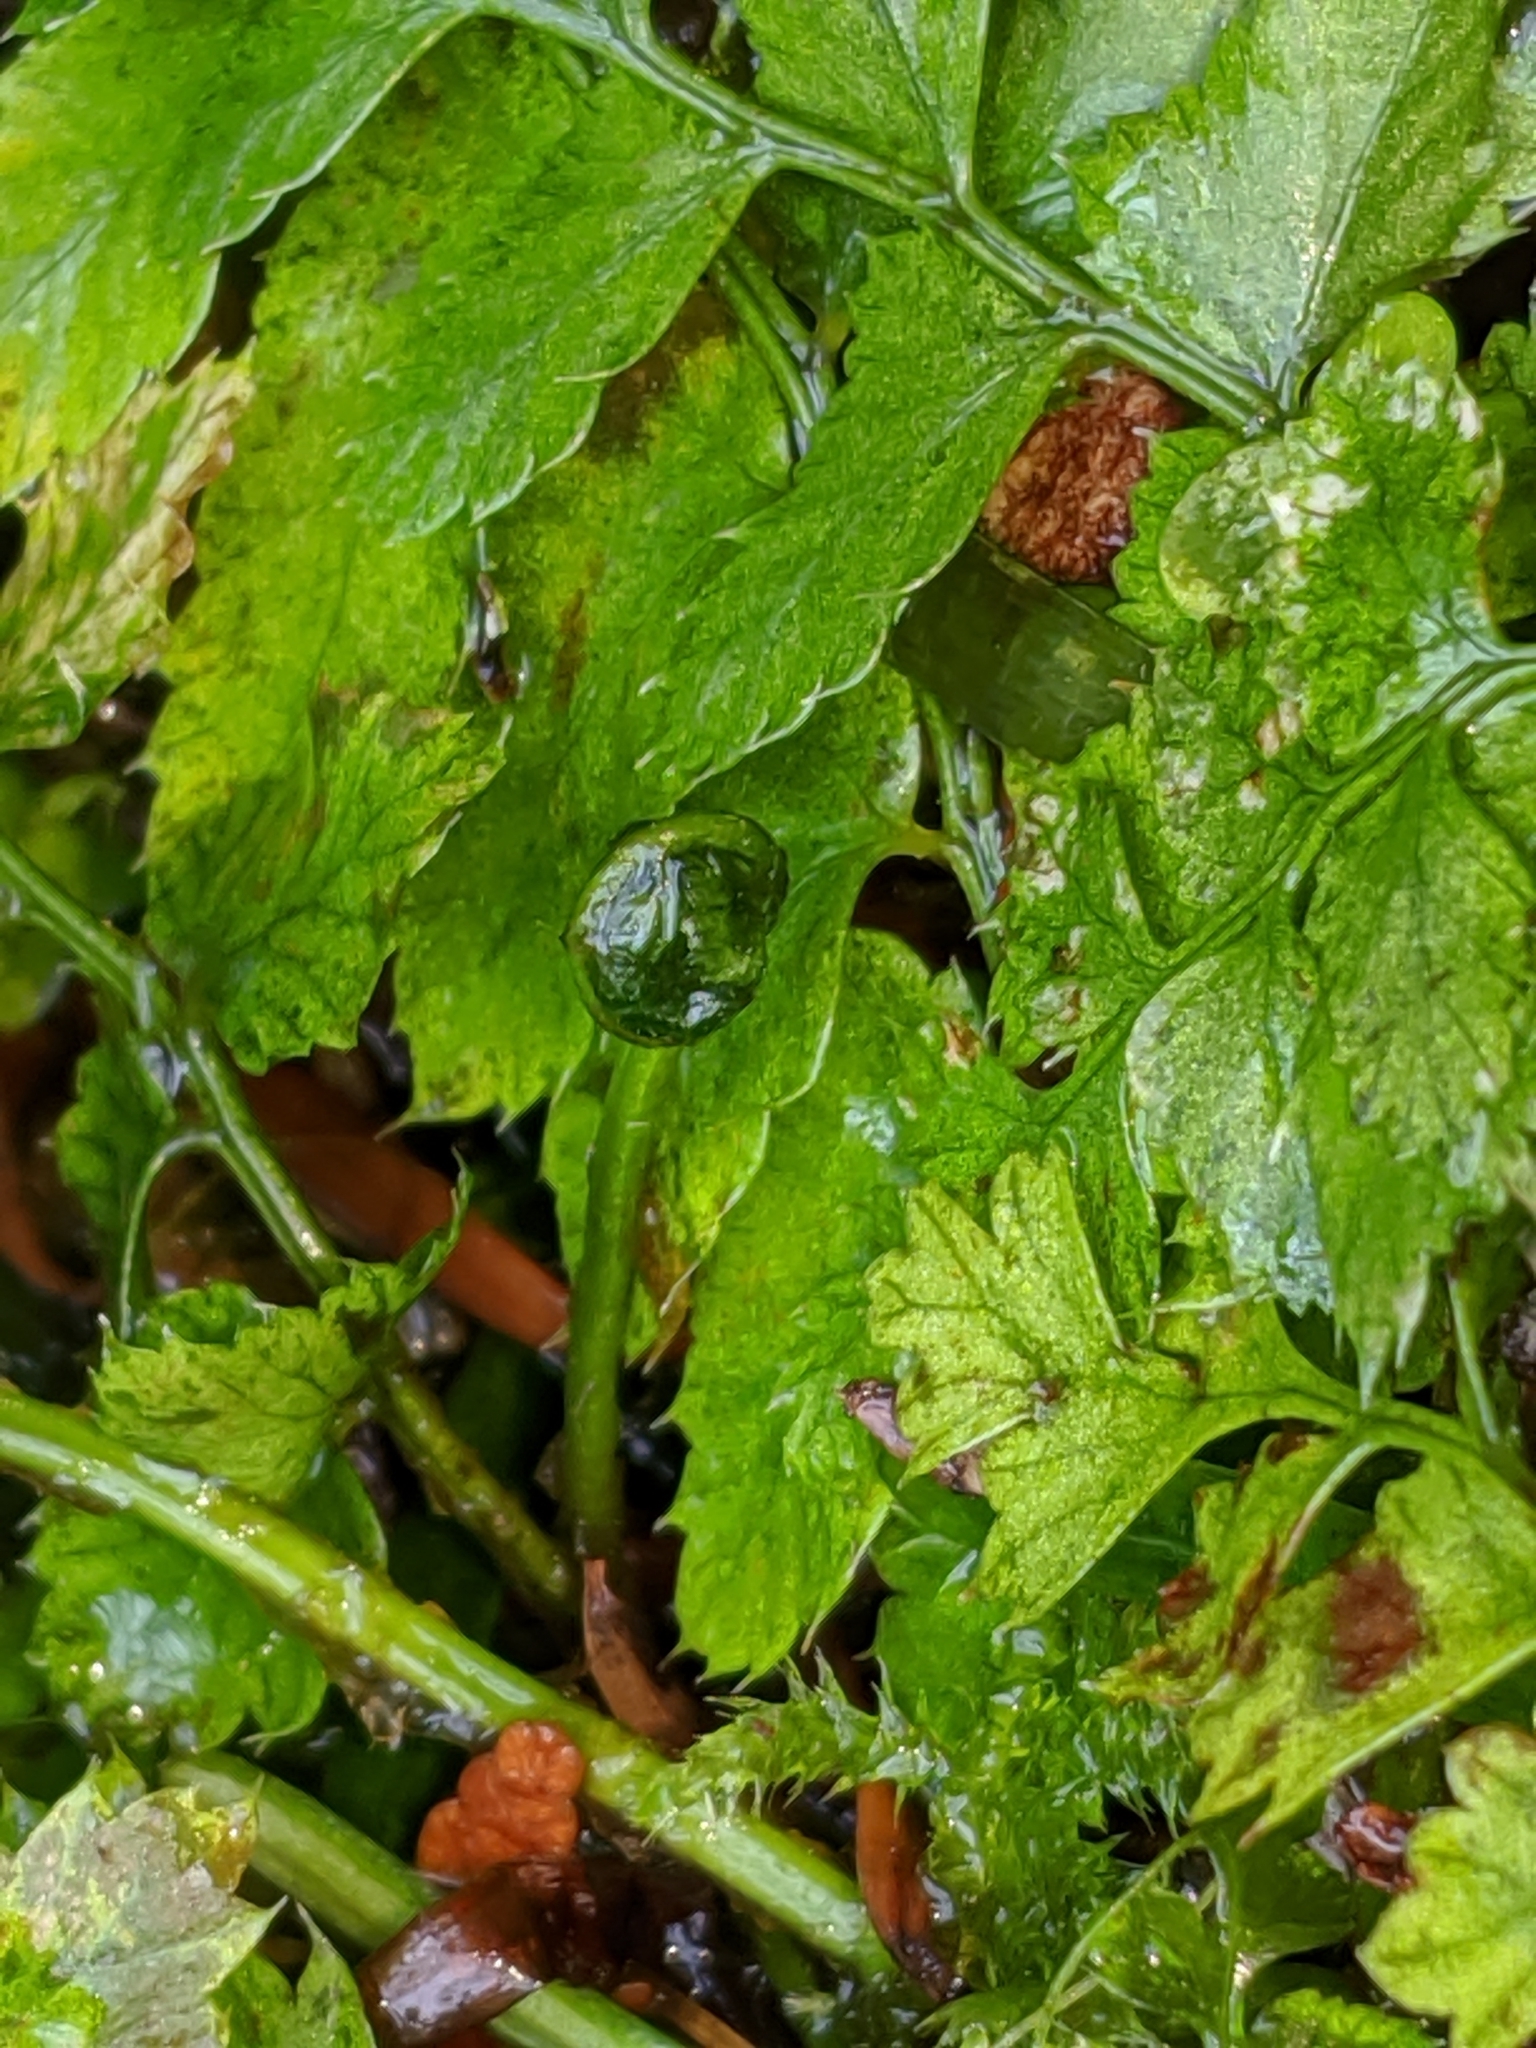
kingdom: Plantae
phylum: Tracheophyta
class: Polypodiopsida
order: Polypodiales
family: Dryopteridaceae
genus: Polystichum
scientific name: Polystichum munitum
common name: Western sword-fern
